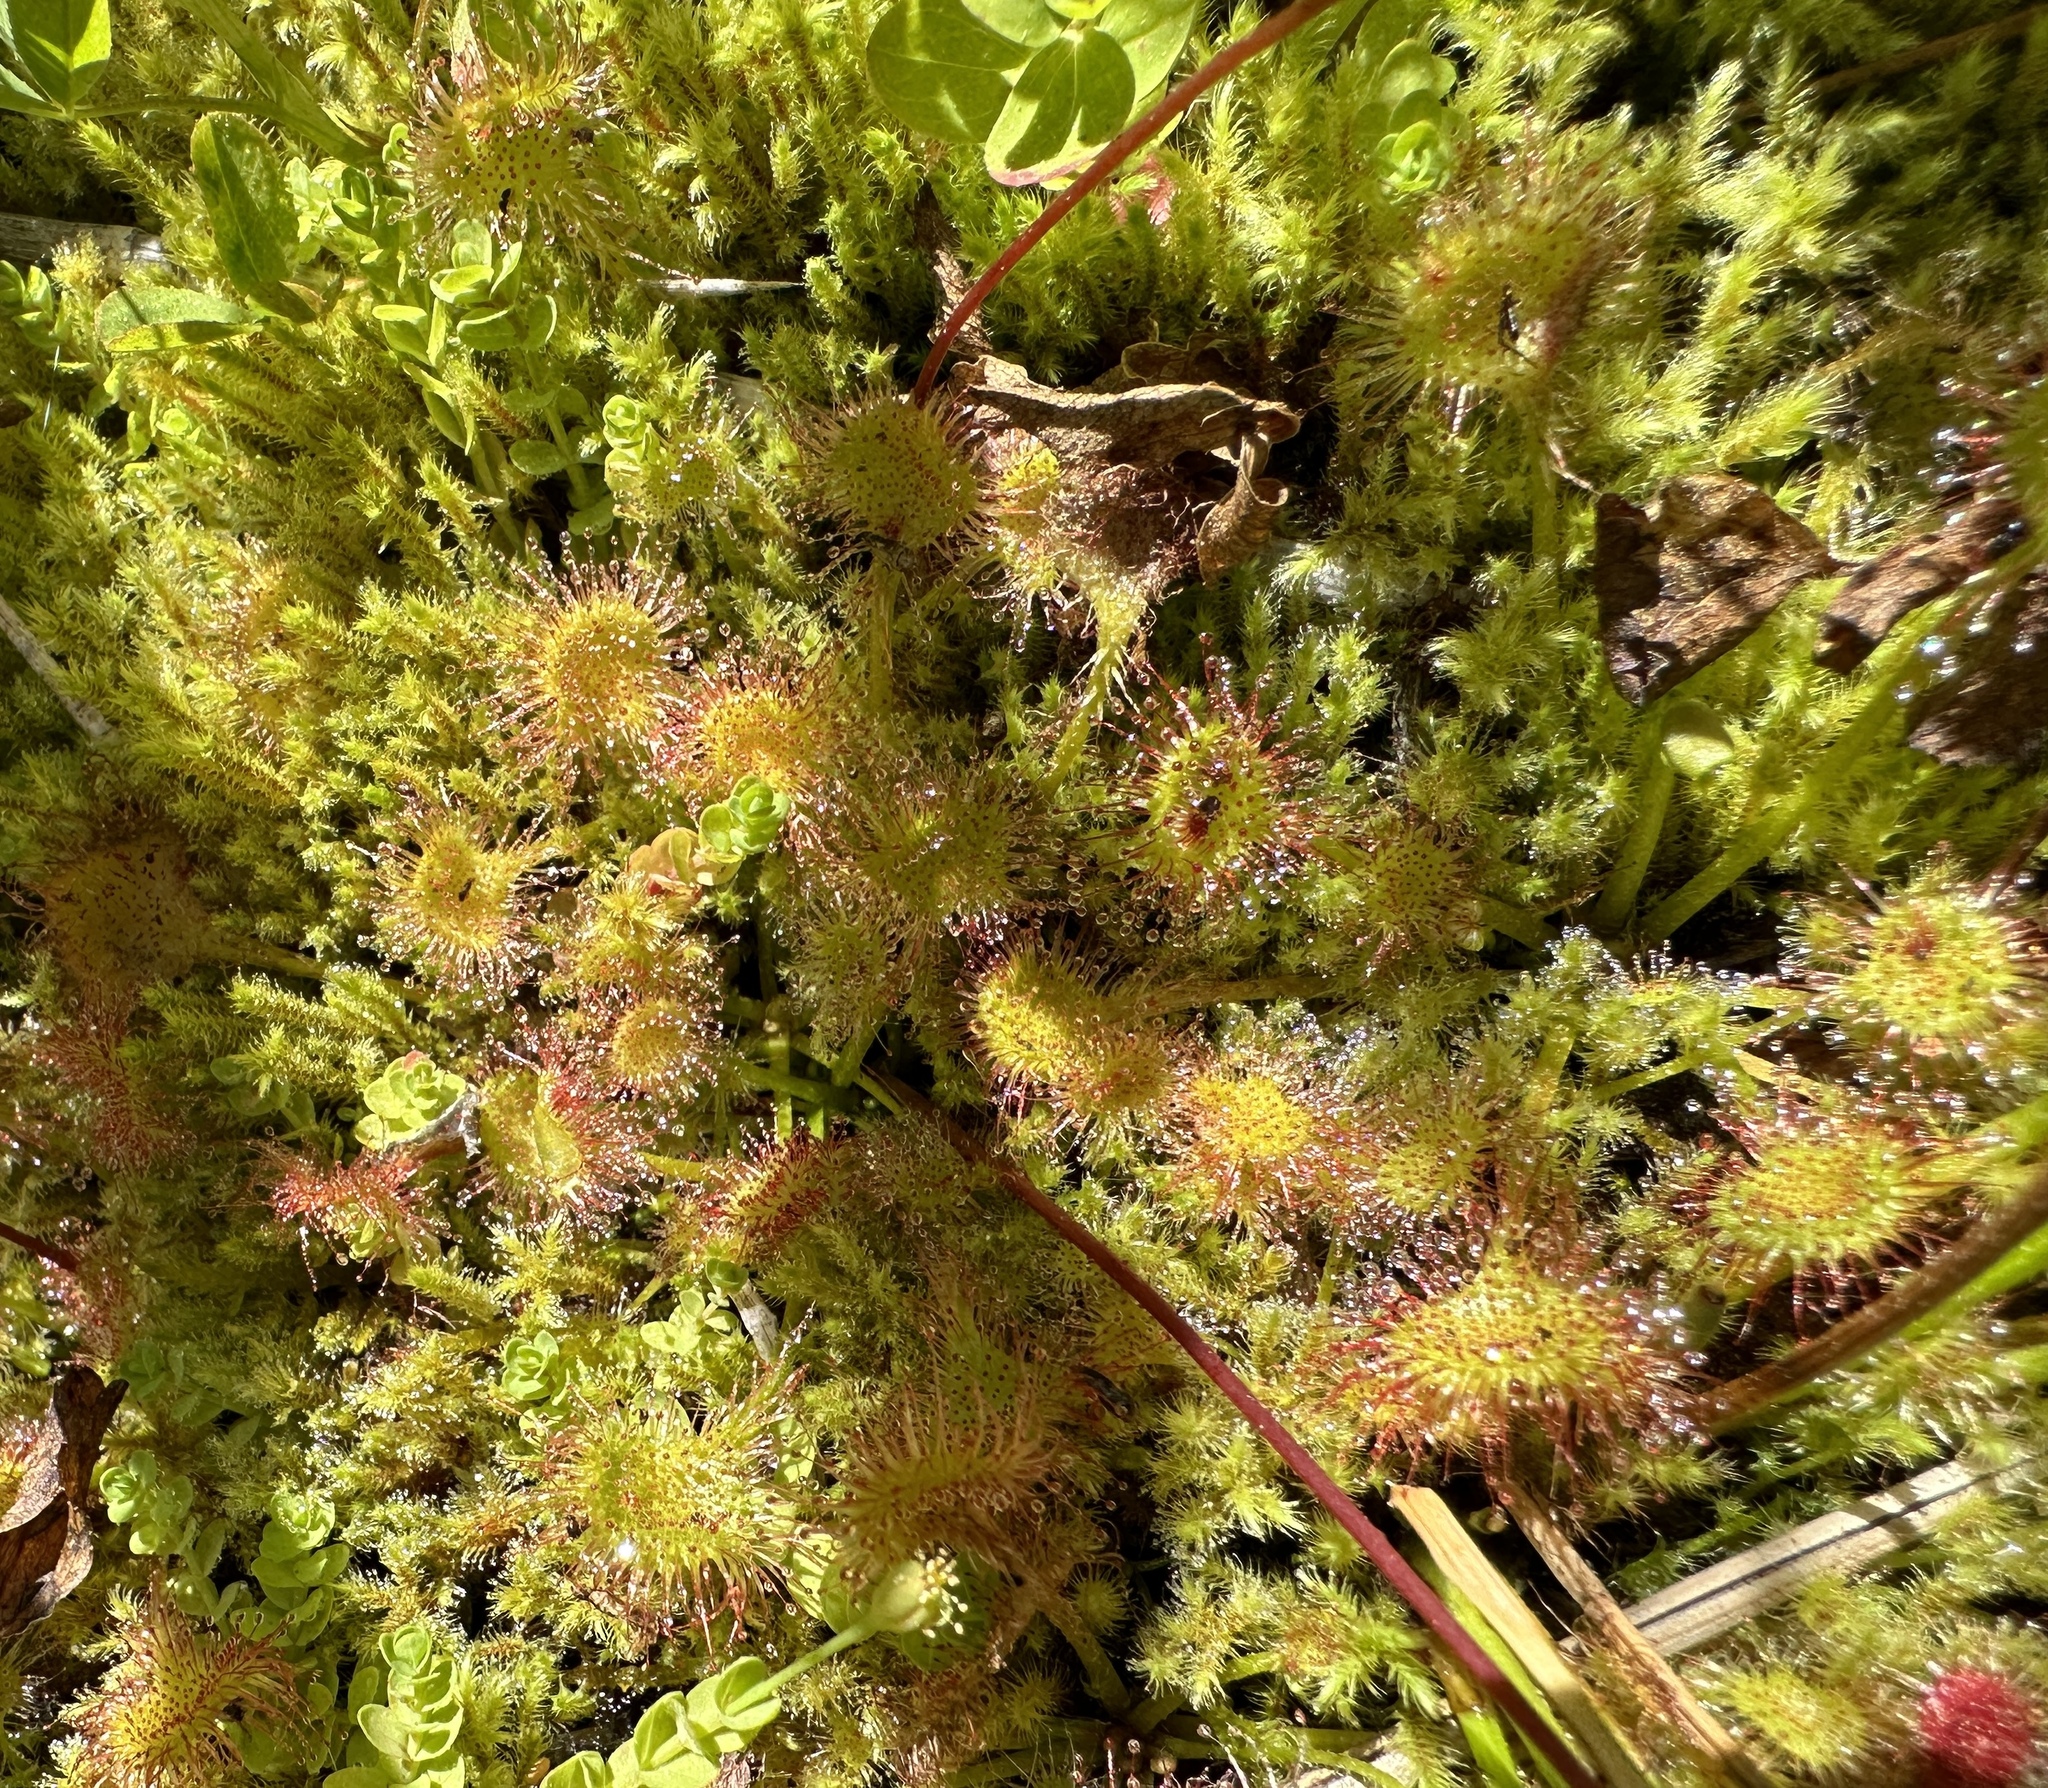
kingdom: Plantae
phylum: Tracheophyta
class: Magnoliopsida
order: Caryophyllales
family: Droseraceae
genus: Drosera
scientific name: Drosera rotundifolia
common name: Round-leaved sundew
